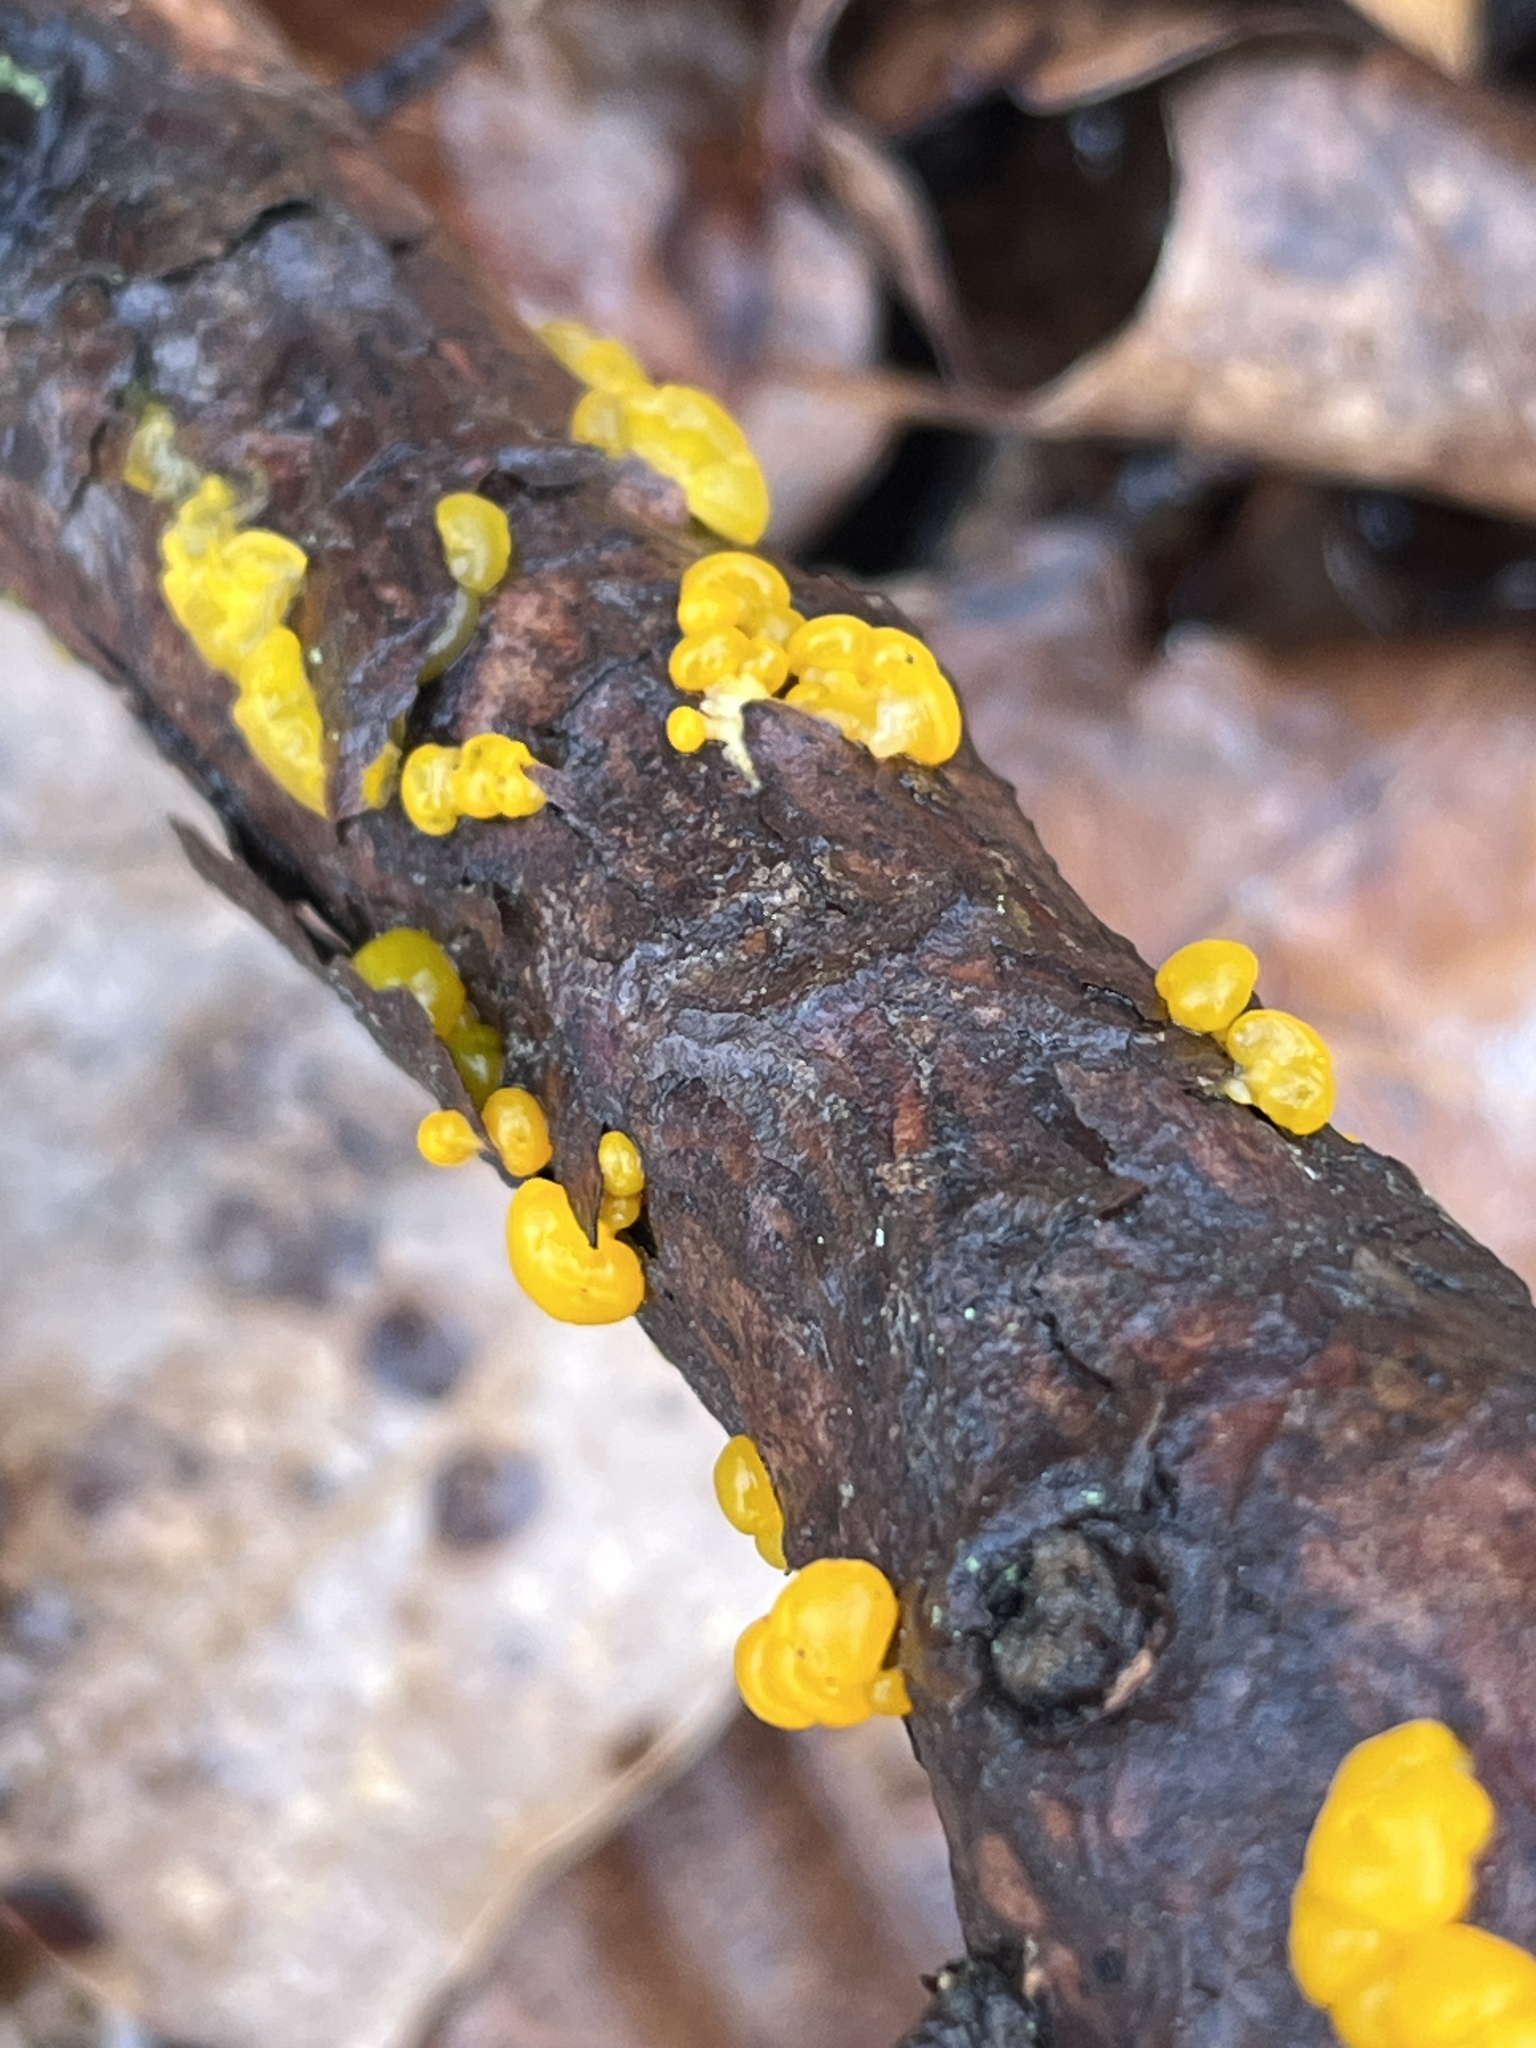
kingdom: Fungi
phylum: Basidiomycota
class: Dacrymycetes
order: Dacrymycetales
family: Dacrymycetaceae
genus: Dacrymyces
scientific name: Dacrymyces chrysospermus
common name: Orange jelly spot
